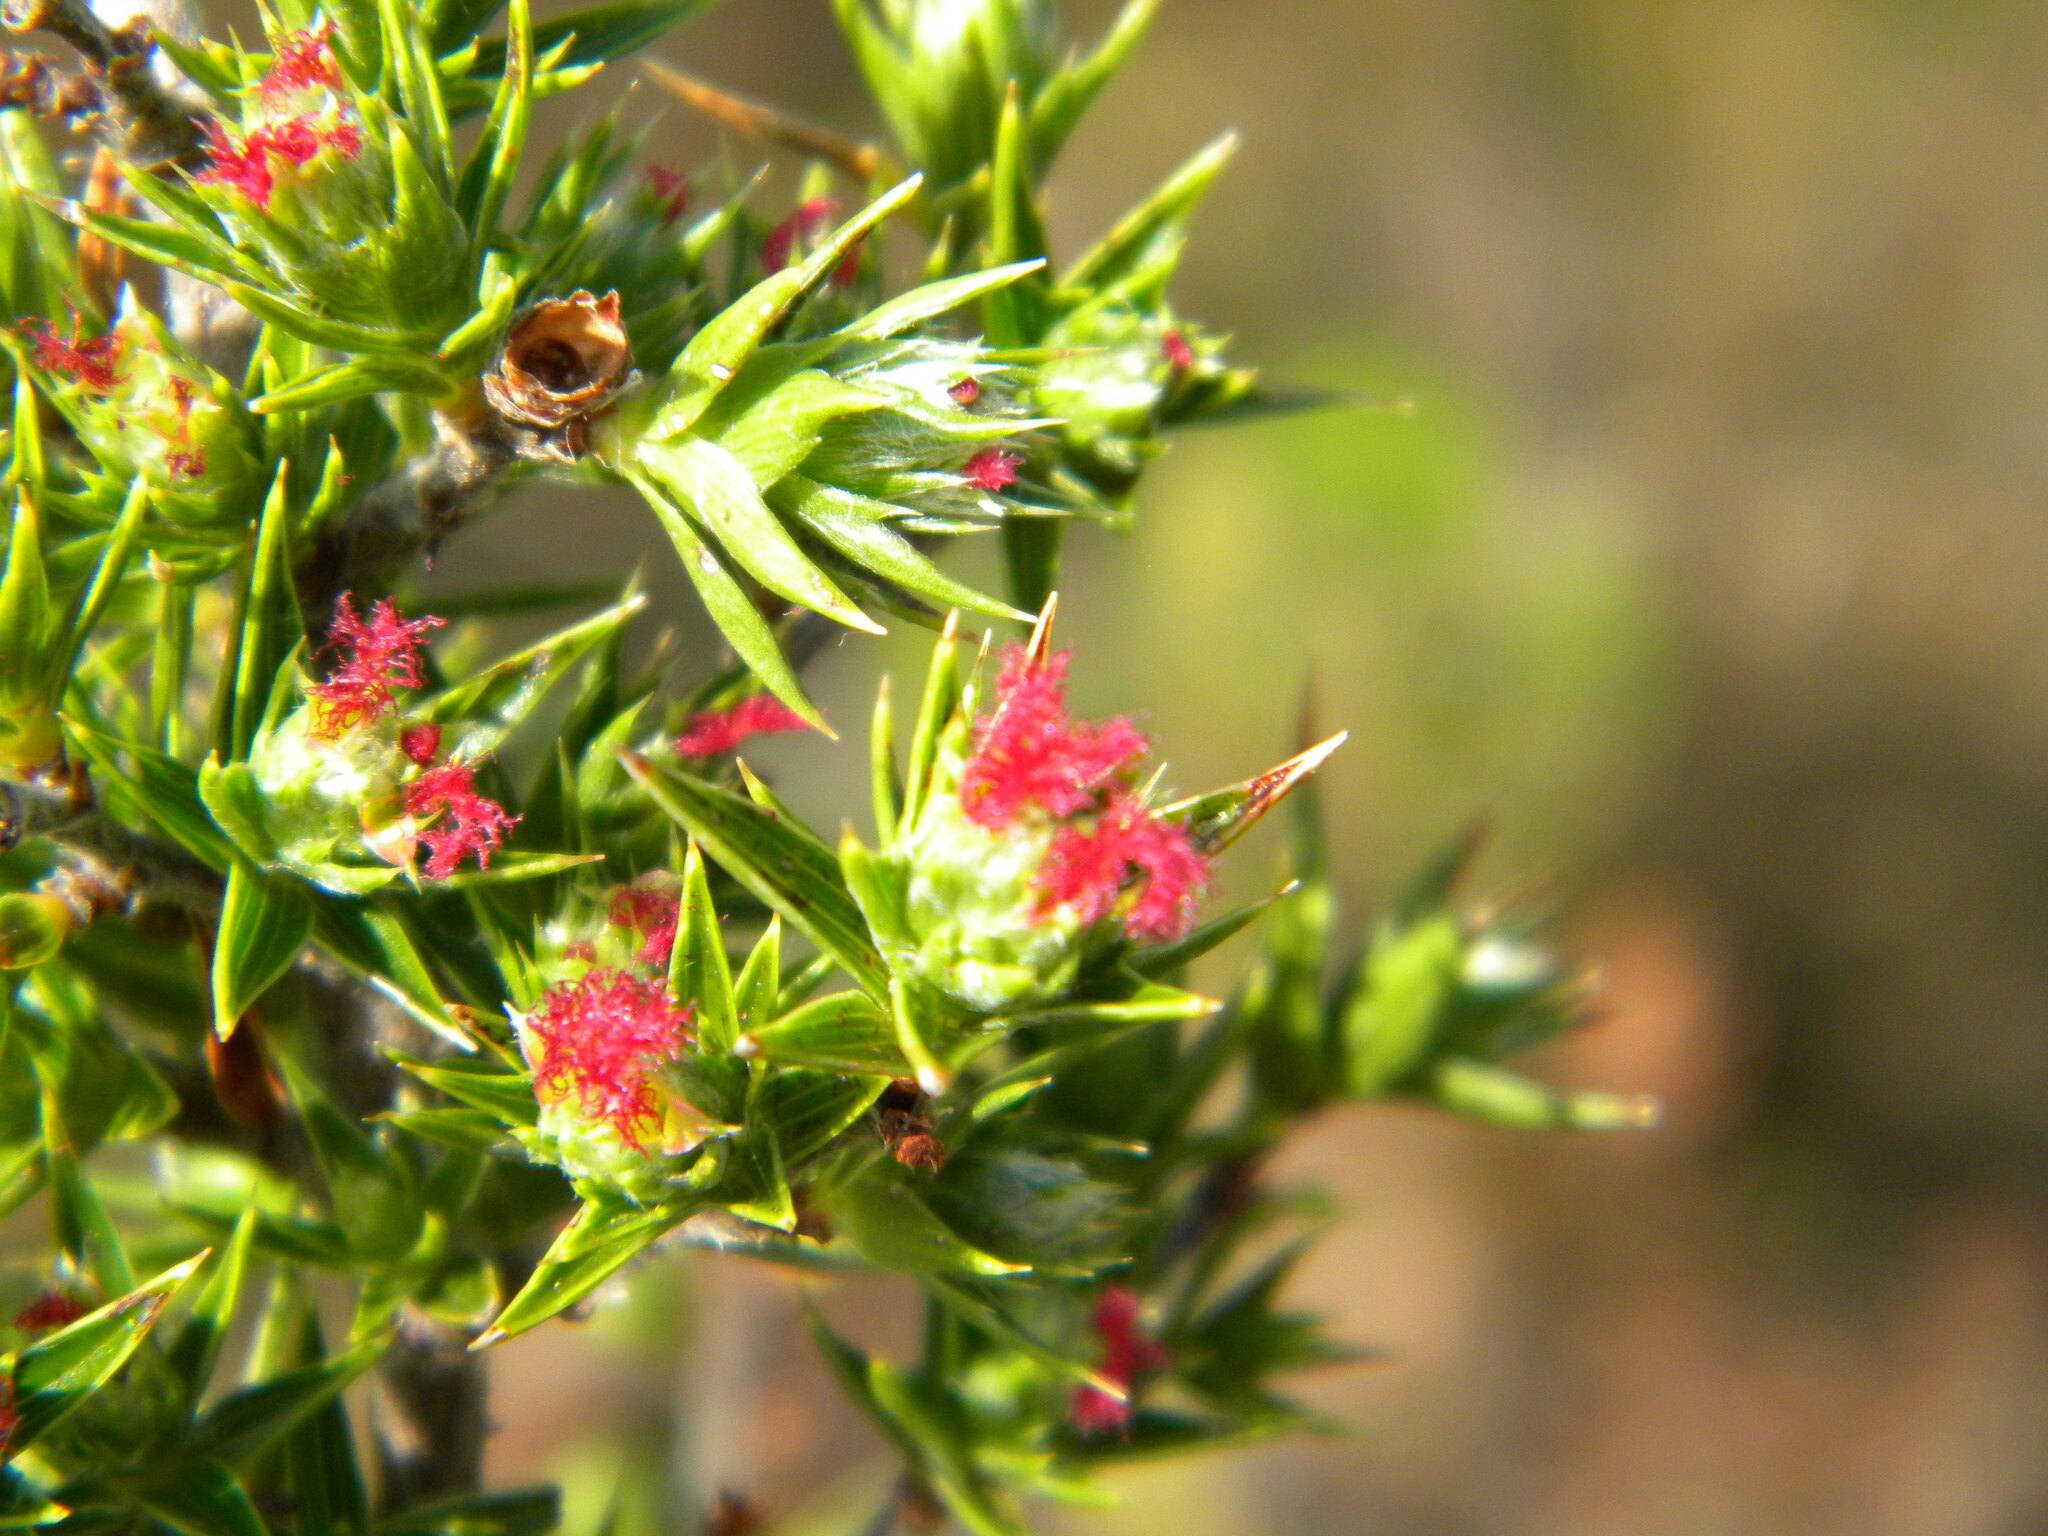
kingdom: Plantae
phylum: Tracheophyta
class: Magnoliopsida
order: Rosales
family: Rosaceae
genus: Cliffortia
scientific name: Cliffortia ruscifolia
